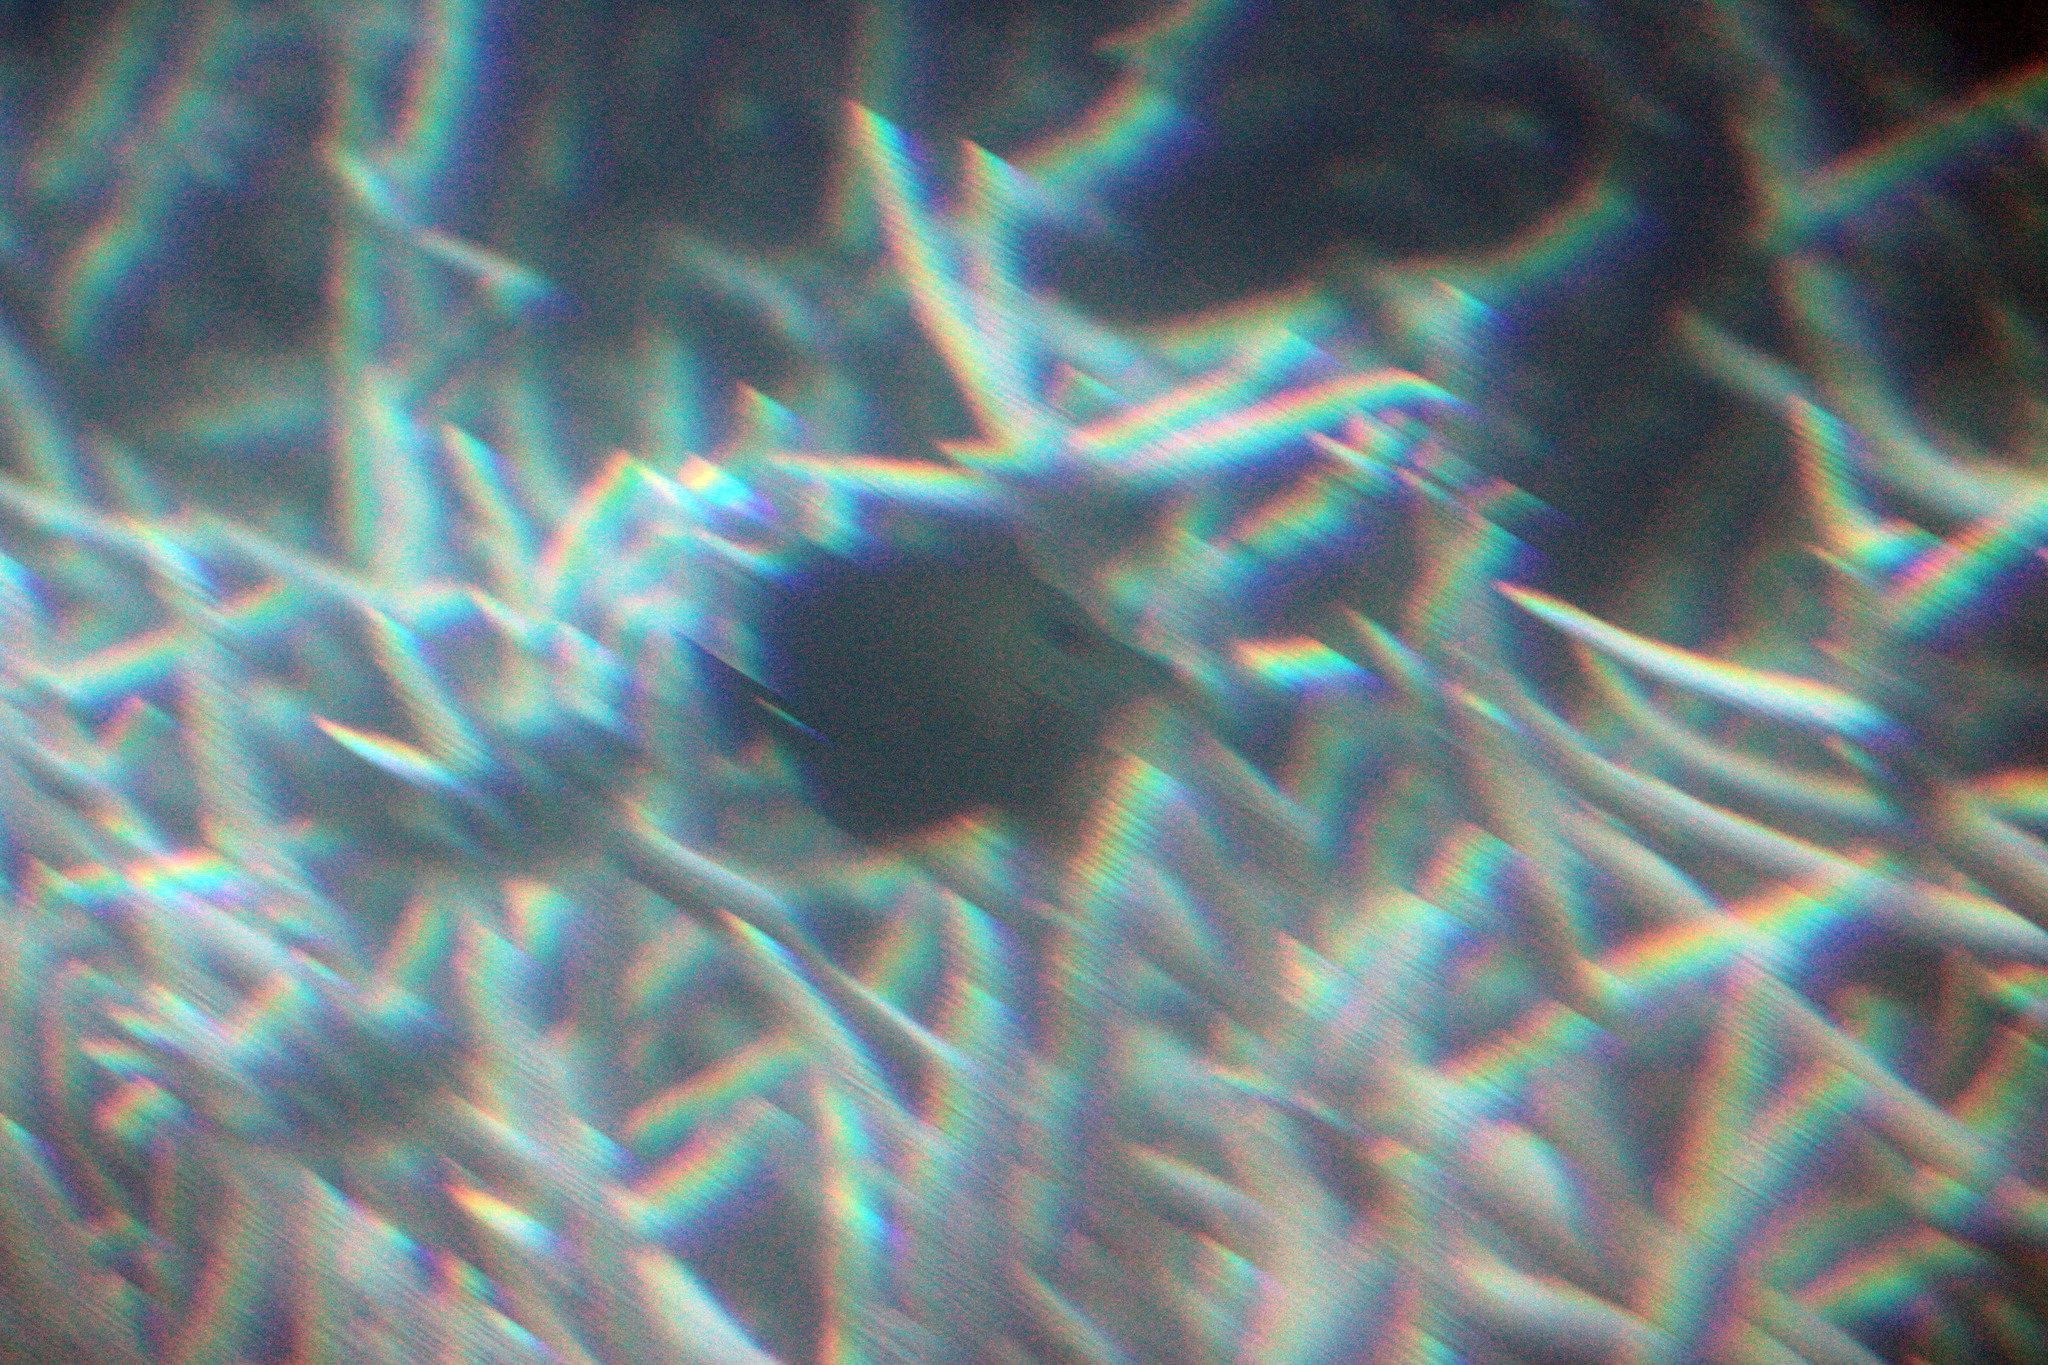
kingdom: Animalia
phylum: Chordata
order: Perciformes
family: Acanthuridae
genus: Zebrasoma
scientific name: Zebrasoma scopas
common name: Twotone tang
